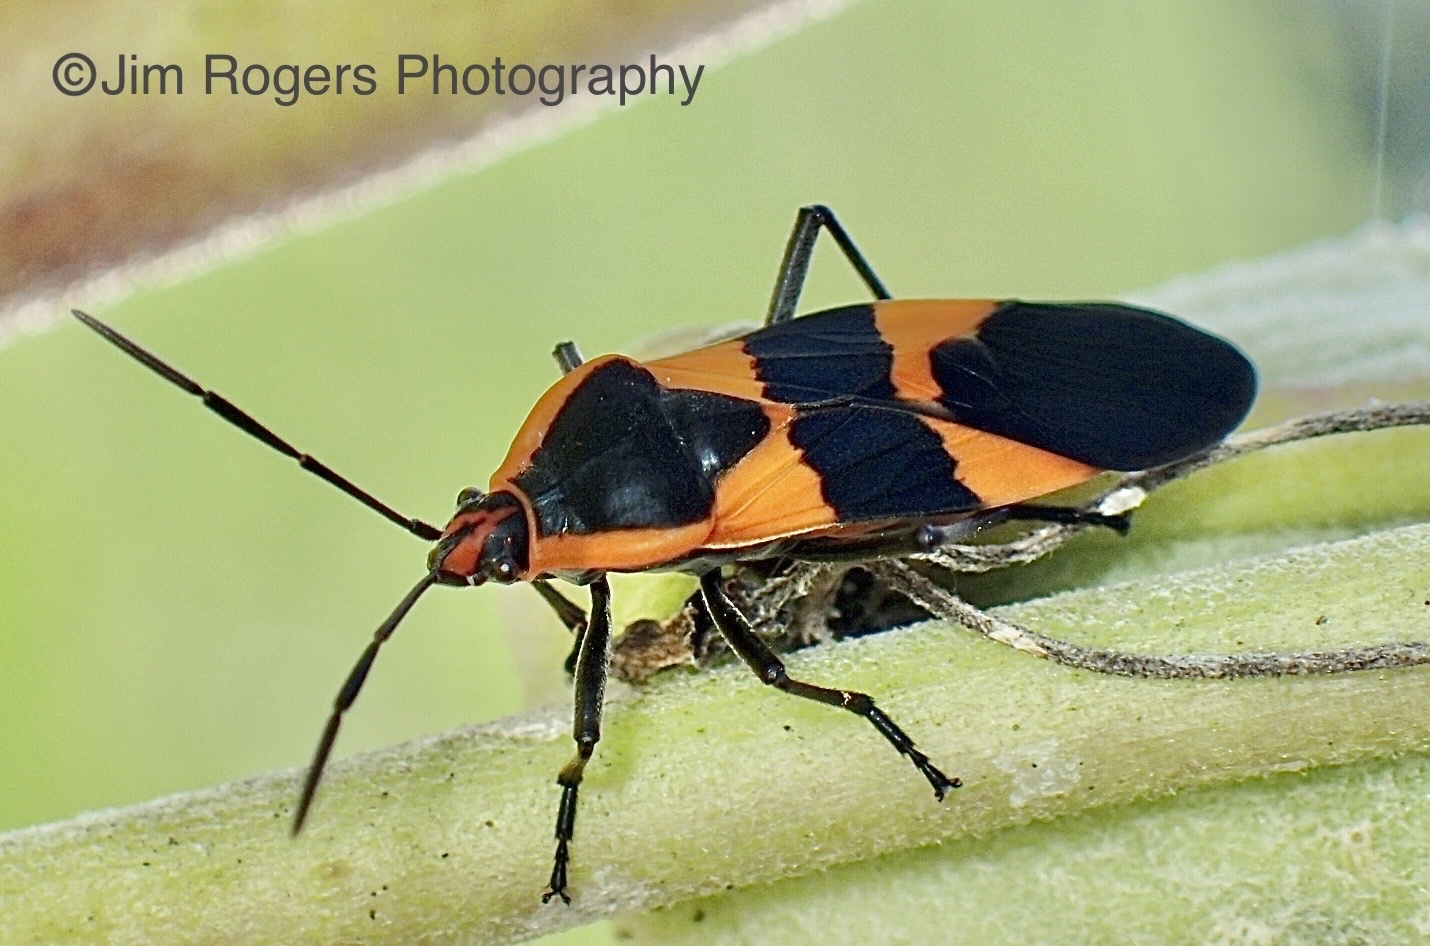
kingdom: Animalia
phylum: Arthropoda
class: Insecta
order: Hemiptera
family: Lygaeidae
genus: Oncopeltus
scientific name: Oncopeltus fasciatus
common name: Large milkweed bug
